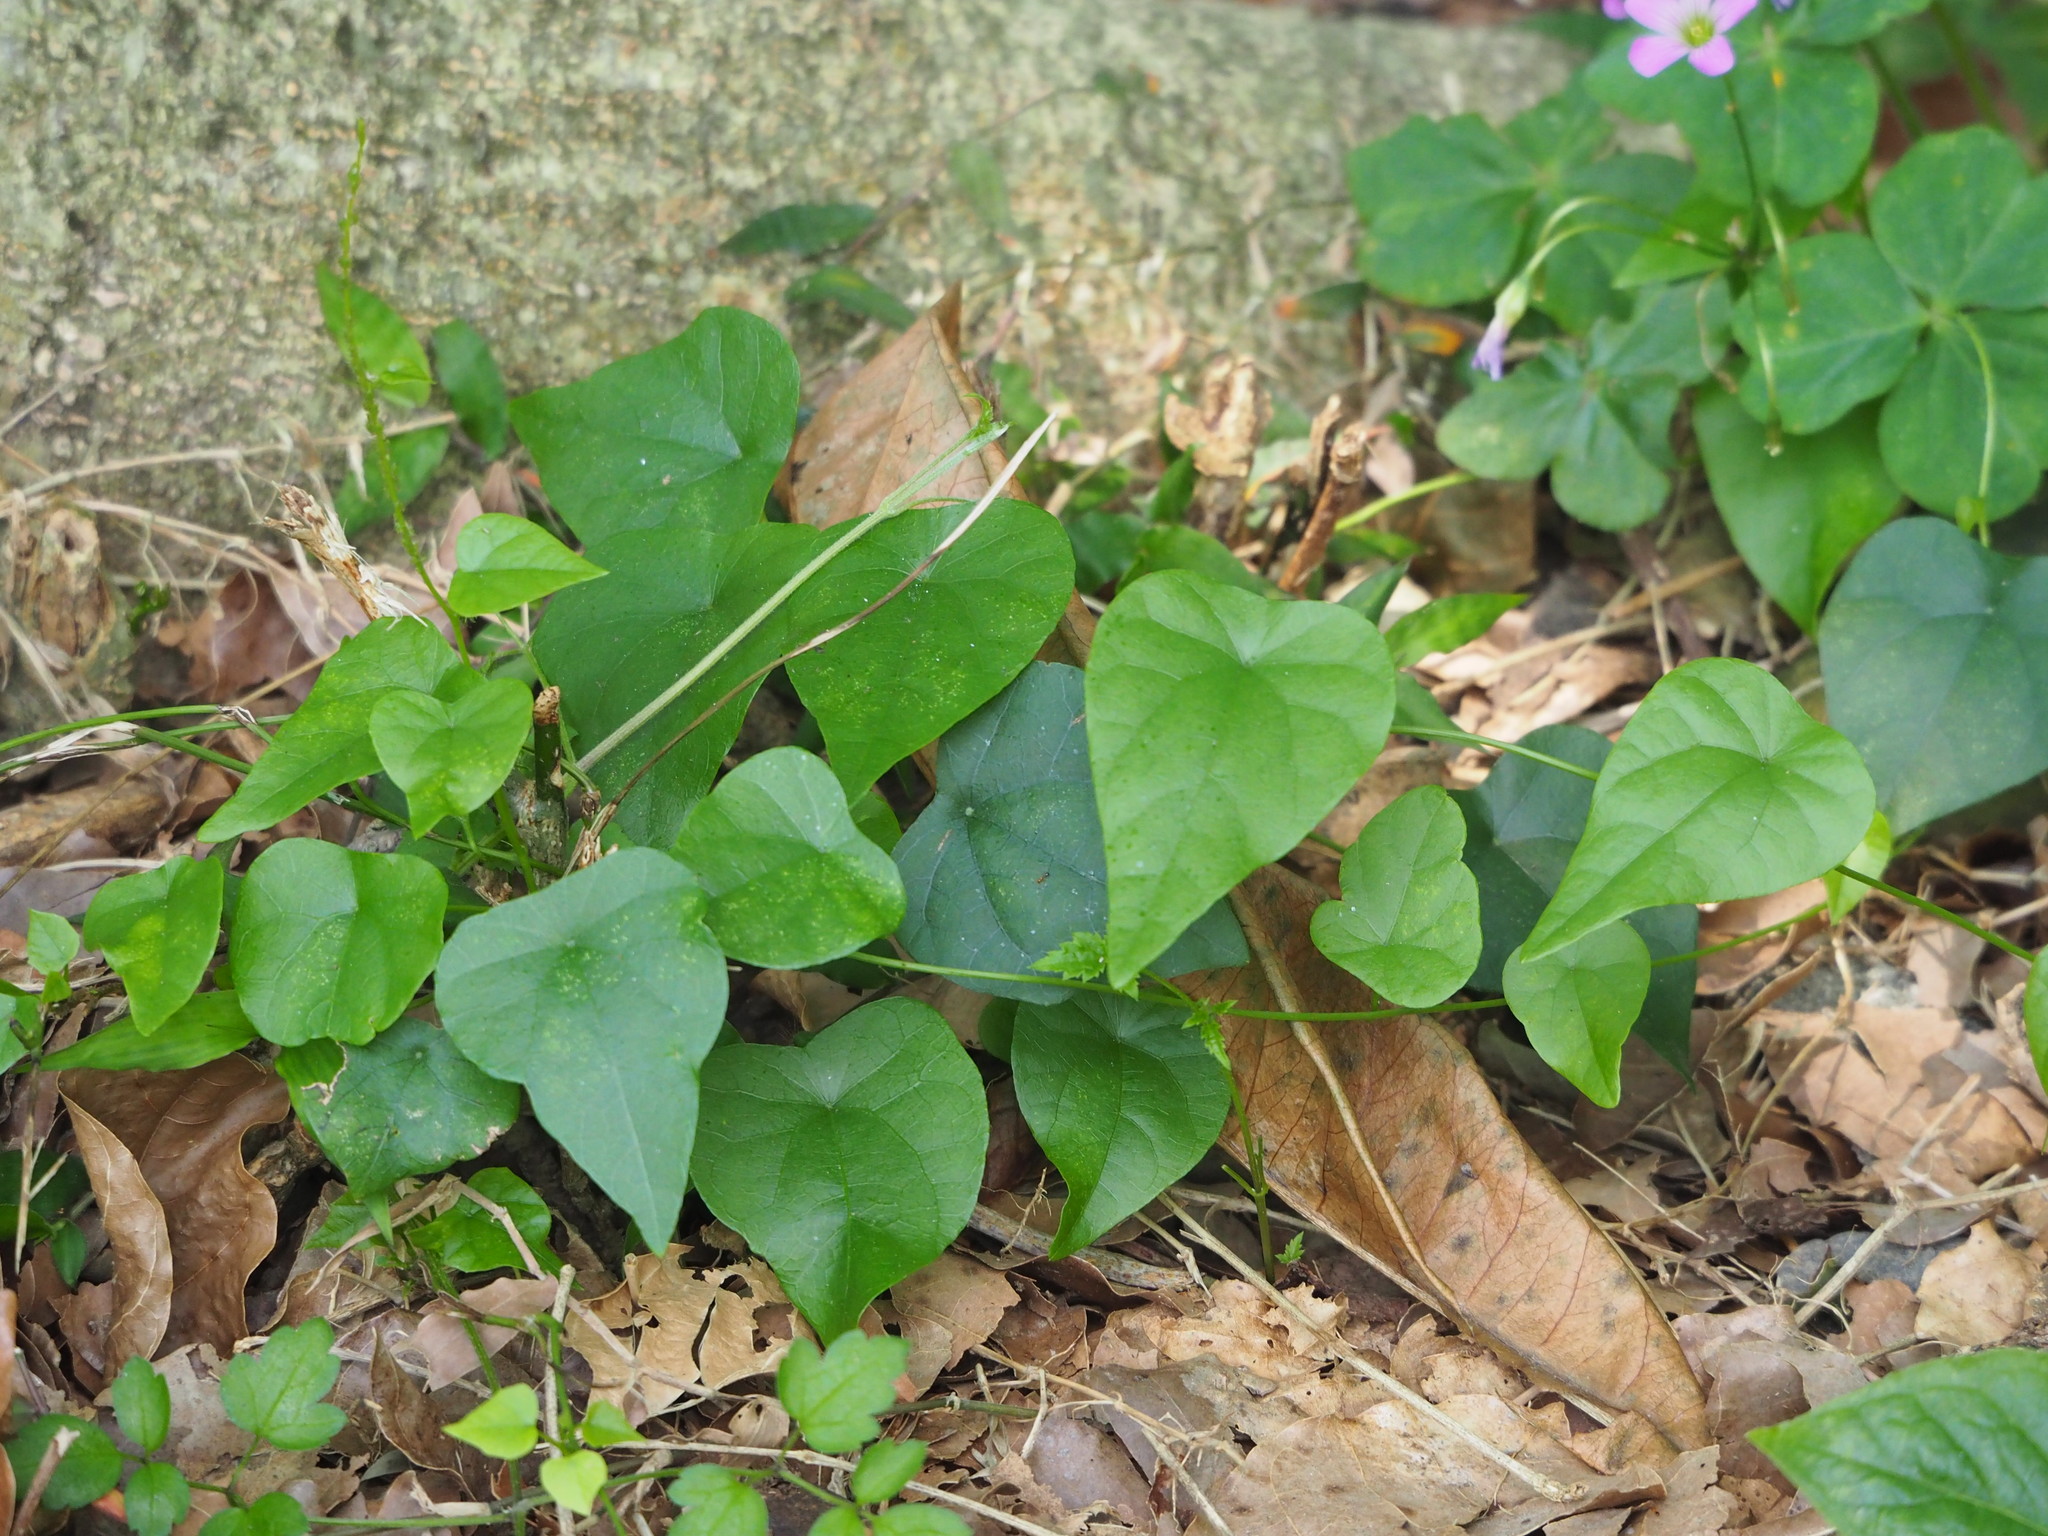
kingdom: Plantae
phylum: Tracheophyta
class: Magnoliopsida
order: Ranunculales
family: Menispermaceae
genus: Stephania
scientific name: Stephania japonica
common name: Snake vine
